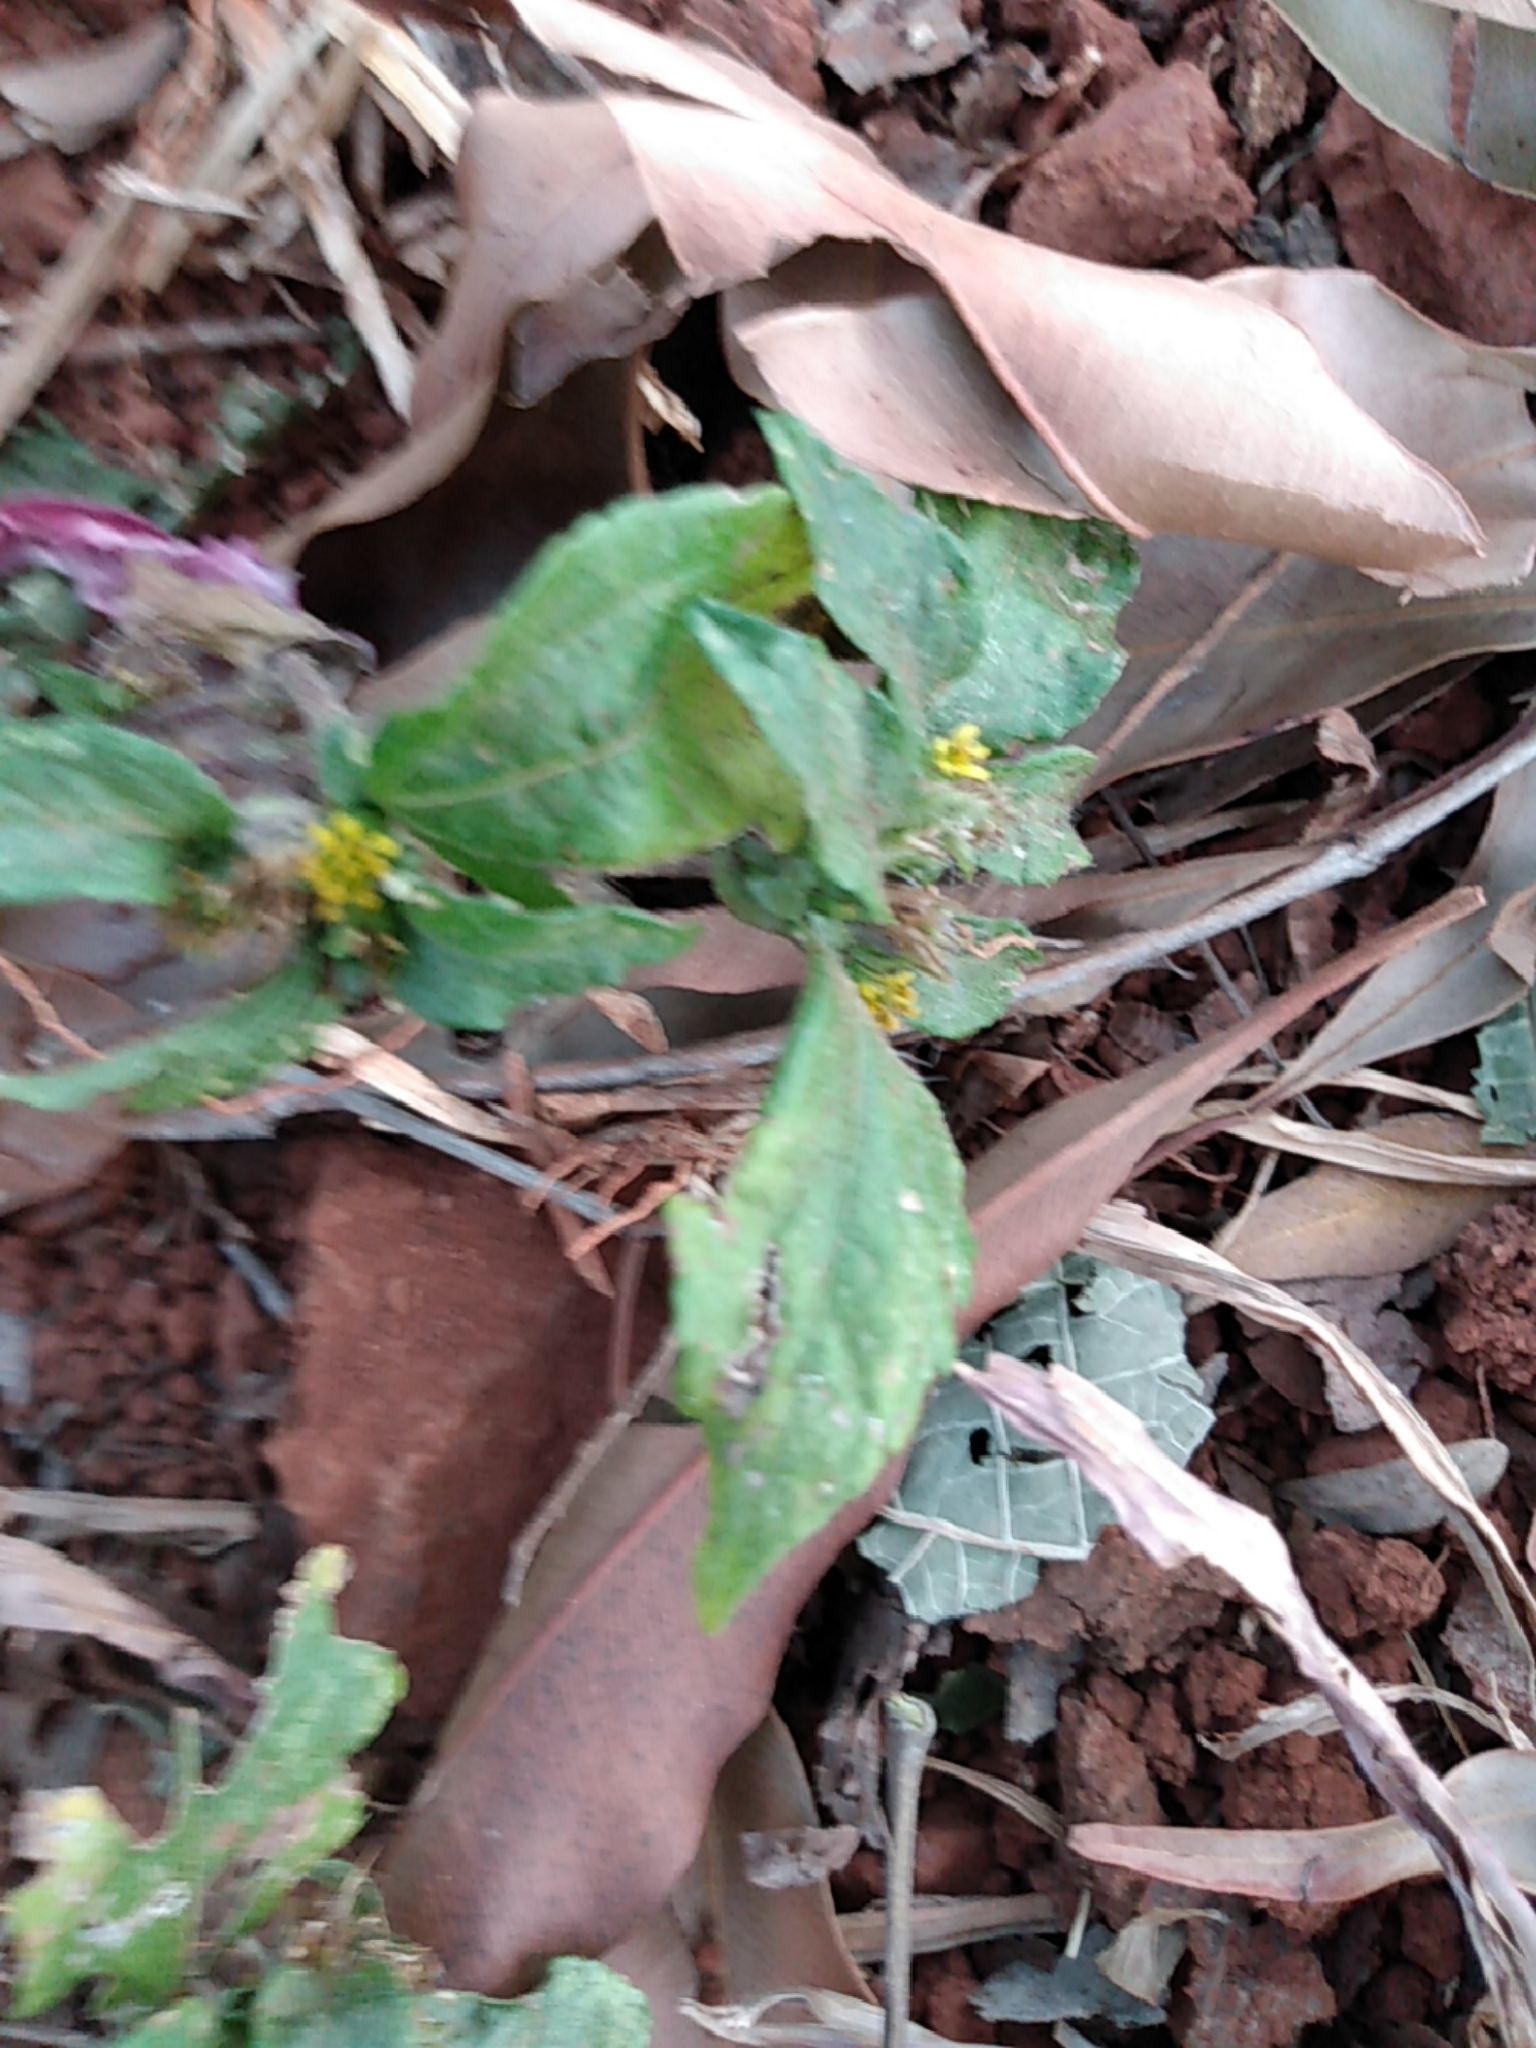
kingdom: Plantae
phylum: Tracheophyta
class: Magnoliopsida
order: Asterales
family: Asteraceae
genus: Calyptocarpus
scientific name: Calyptocarpus vialis
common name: Straggler daisy
